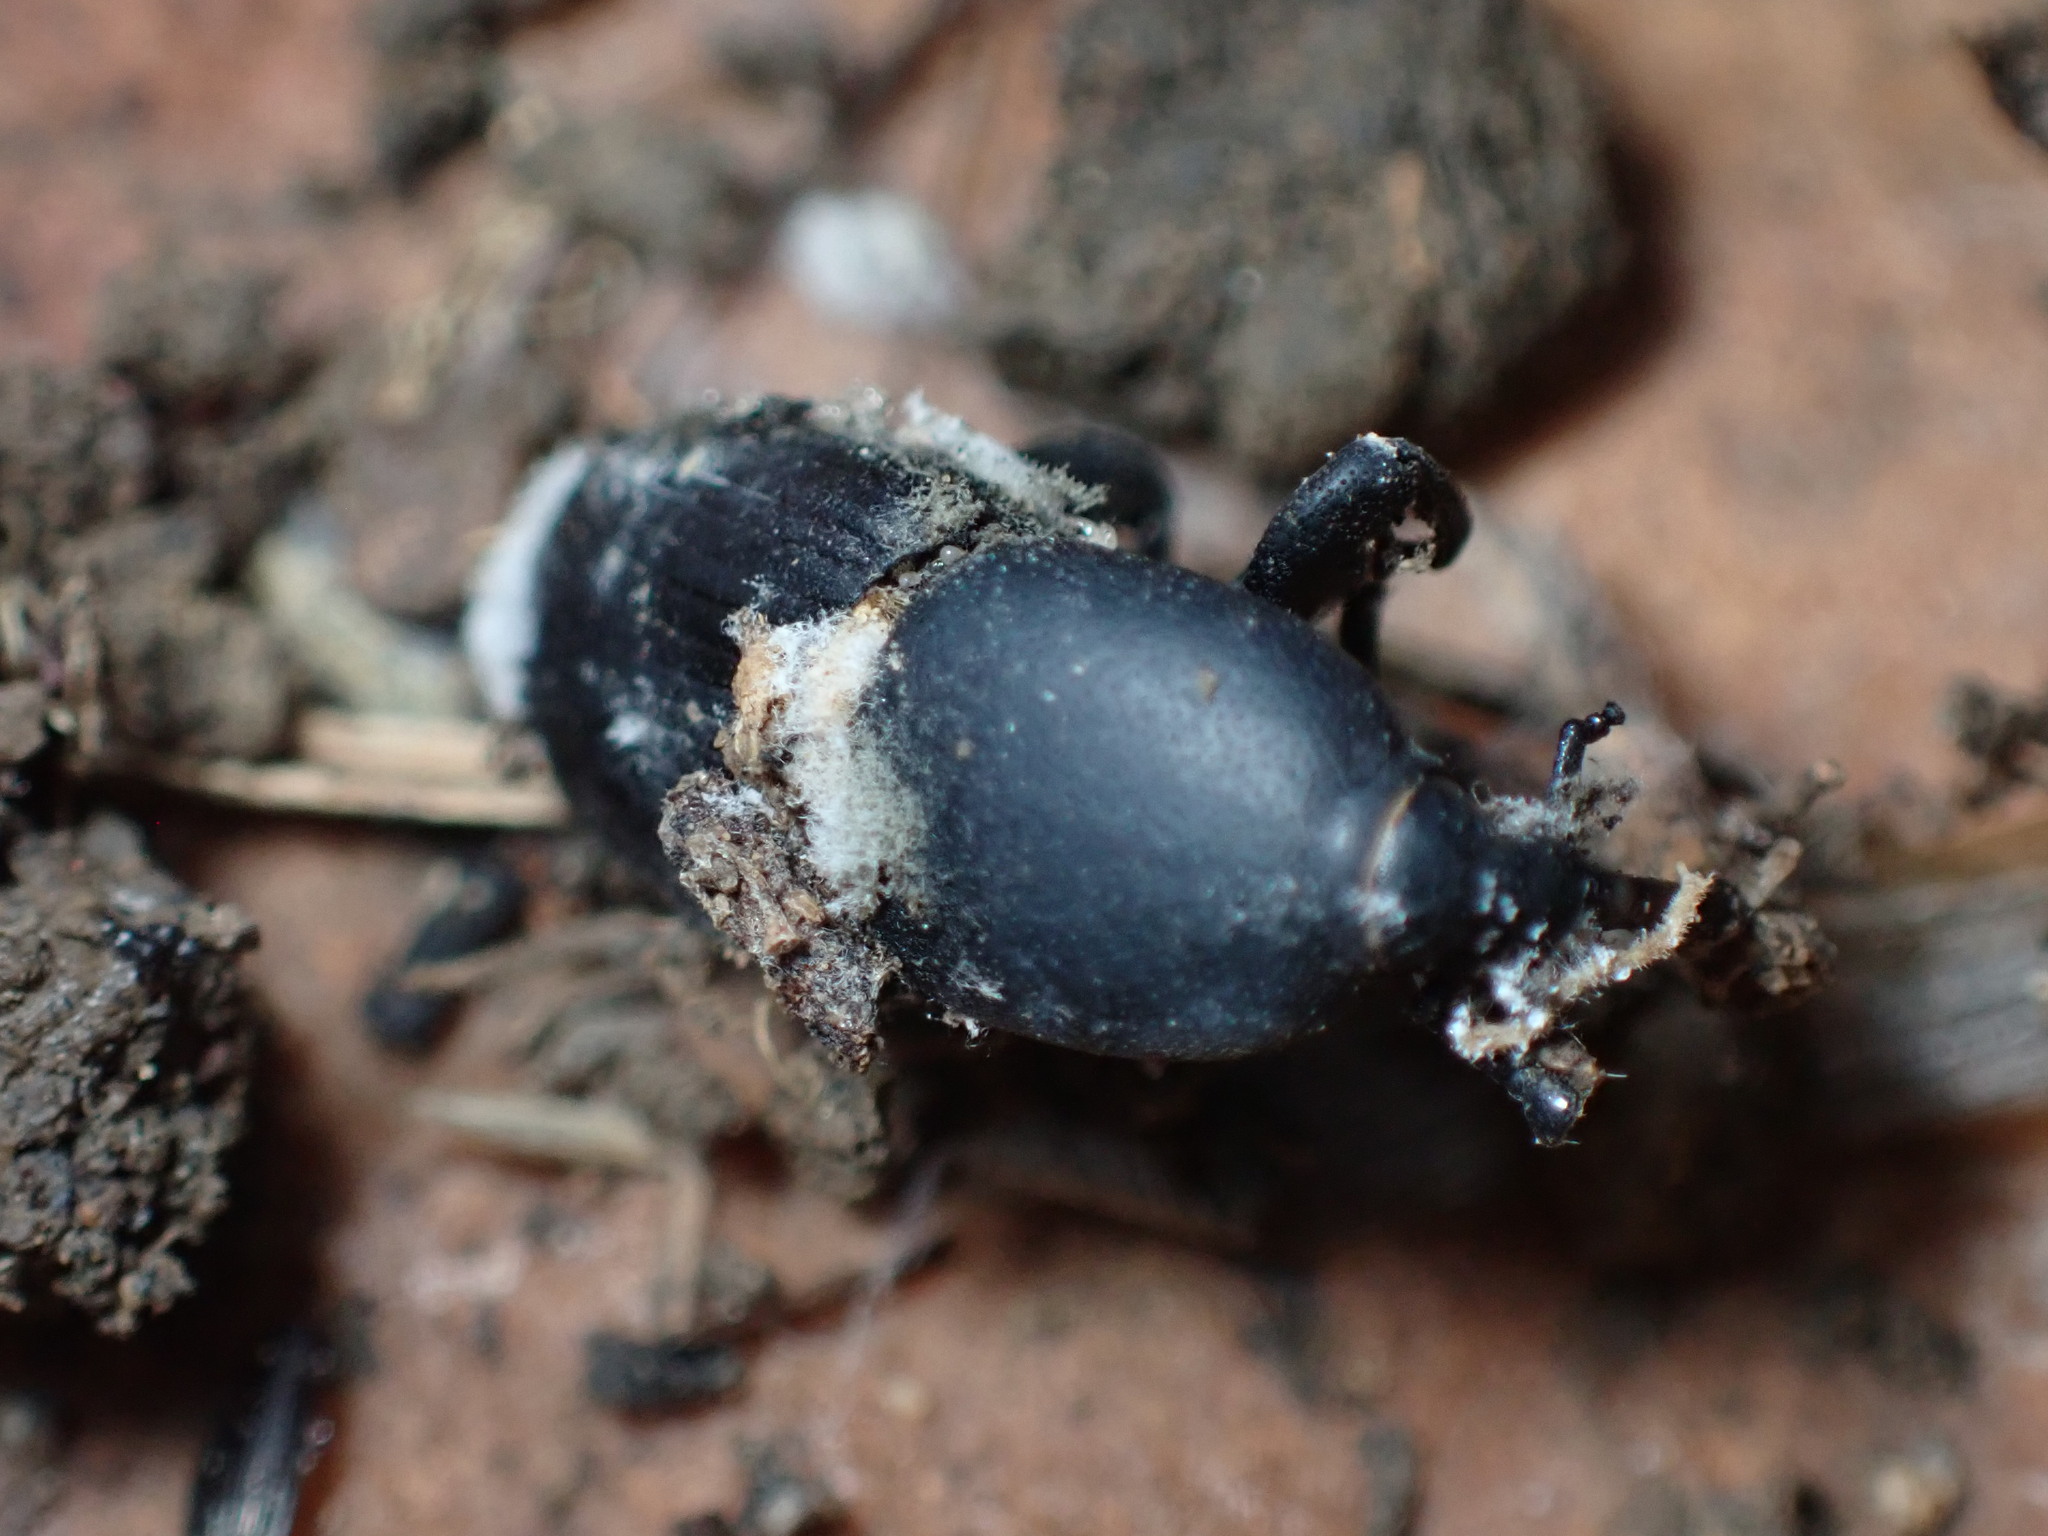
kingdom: Animalia
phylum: Arthropoda
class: Insecta
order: Coleoptera
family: Dryophthoridae
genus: Scyphophorus
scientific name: Scyphophorus acupunctatus
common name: Weevil
